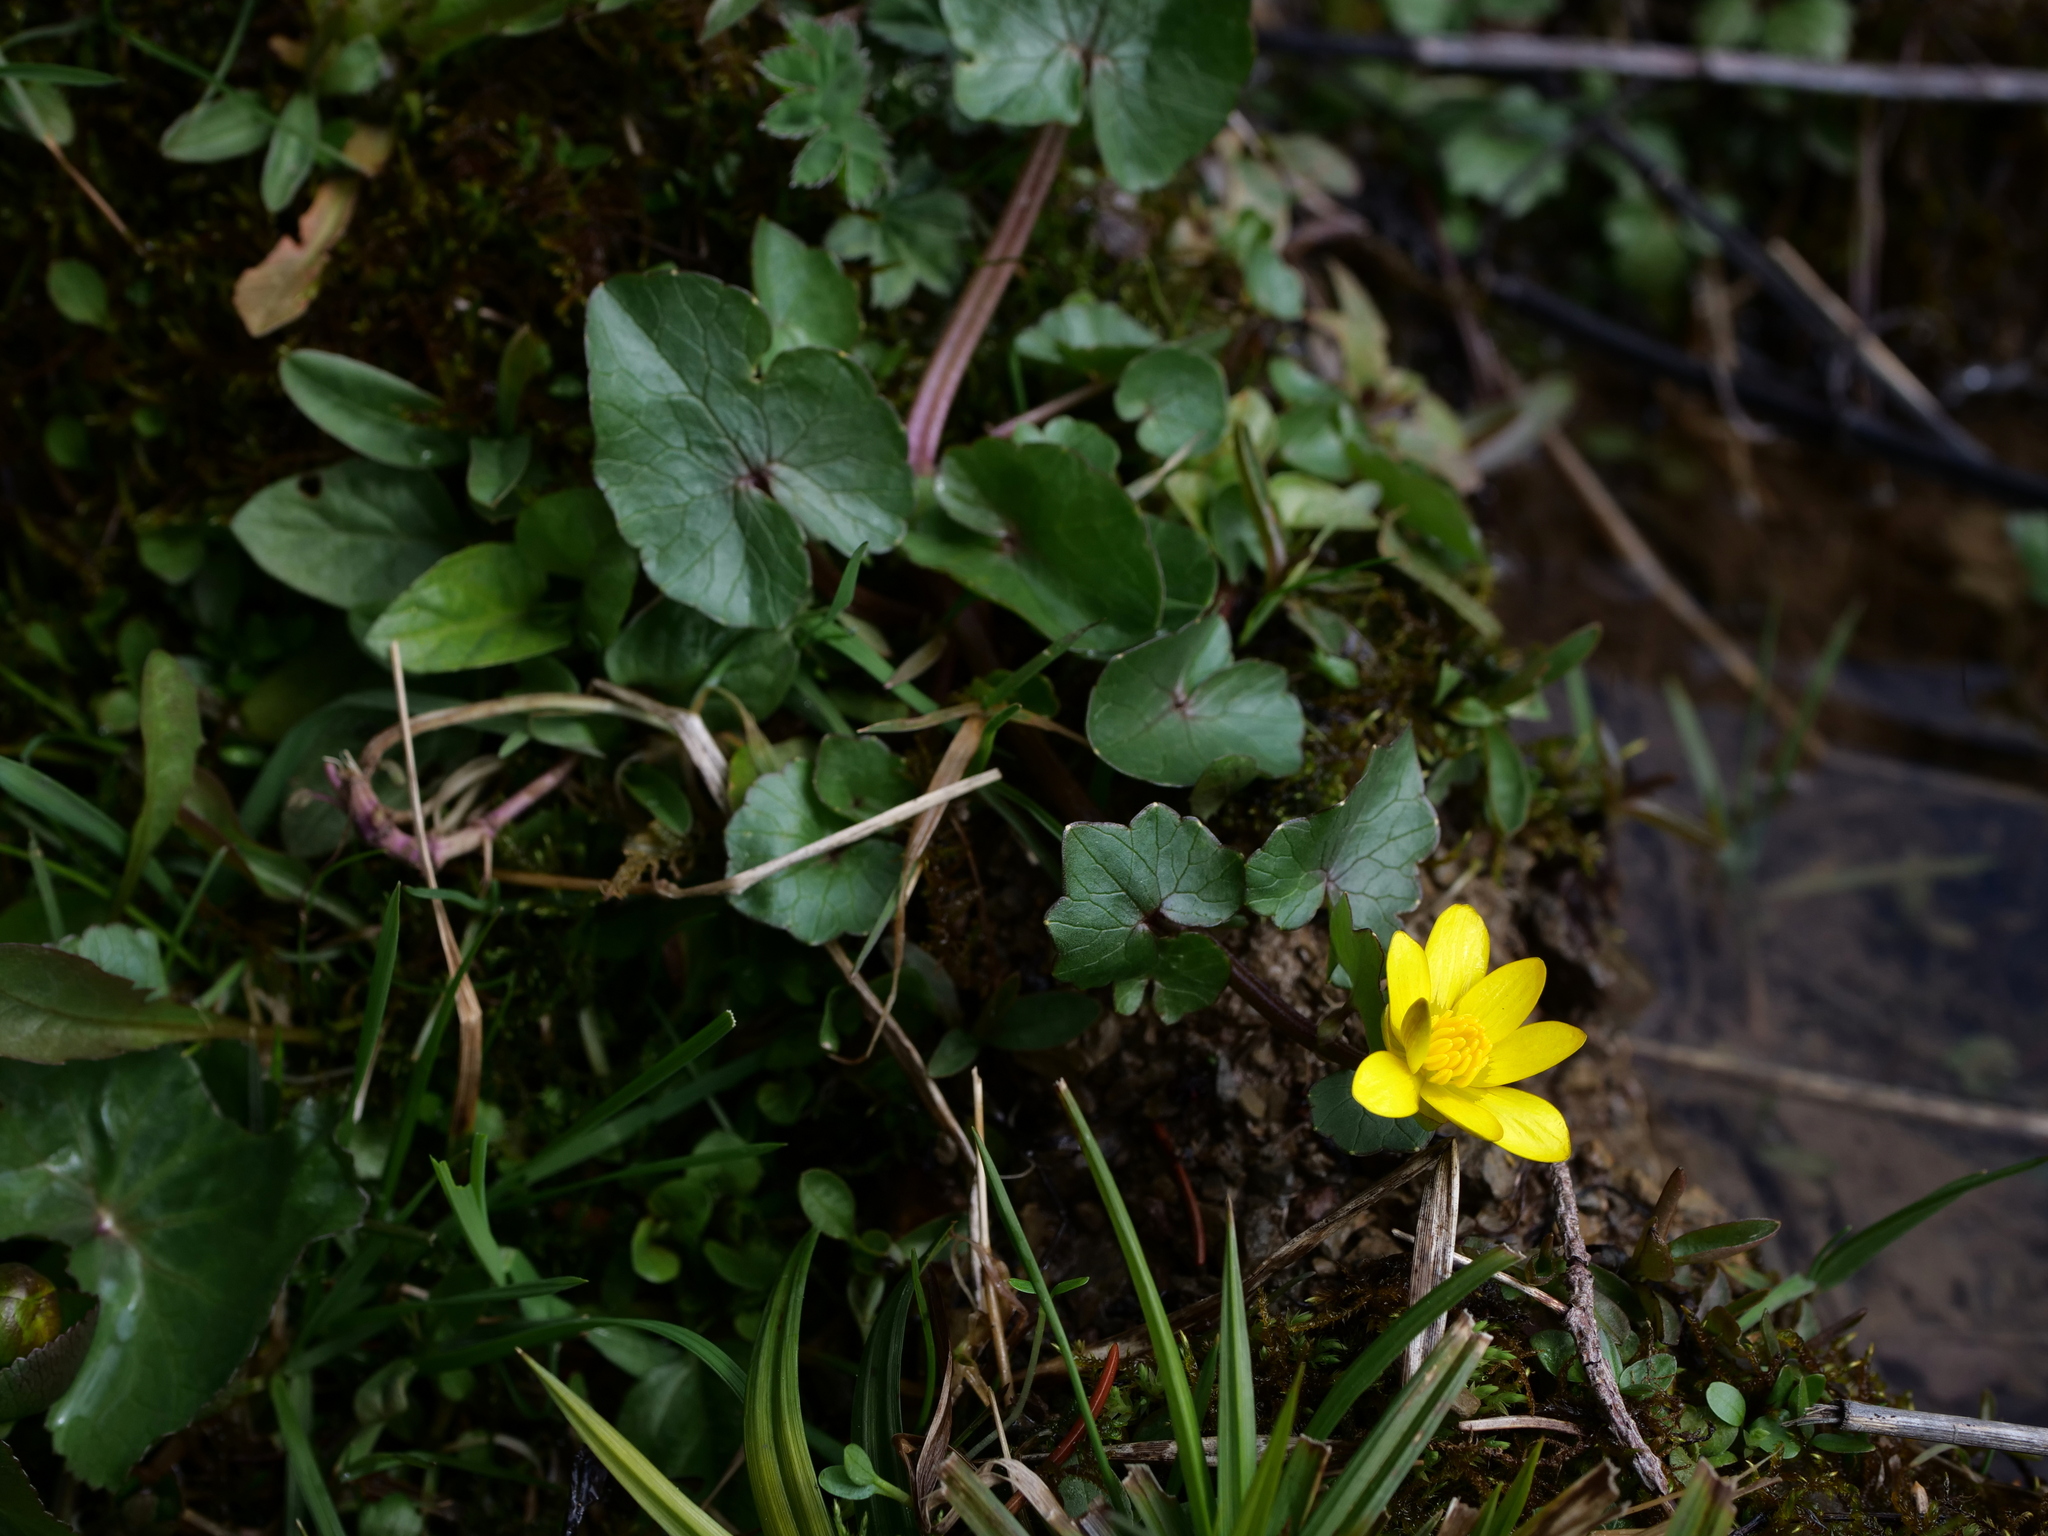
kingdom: Plantae
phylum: Tracheophyta
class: Magnoliopsida
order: Ranunculales
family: Ranunculaceae
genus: Ficaria
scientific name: Ficaria verna
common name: Lesser celandine
